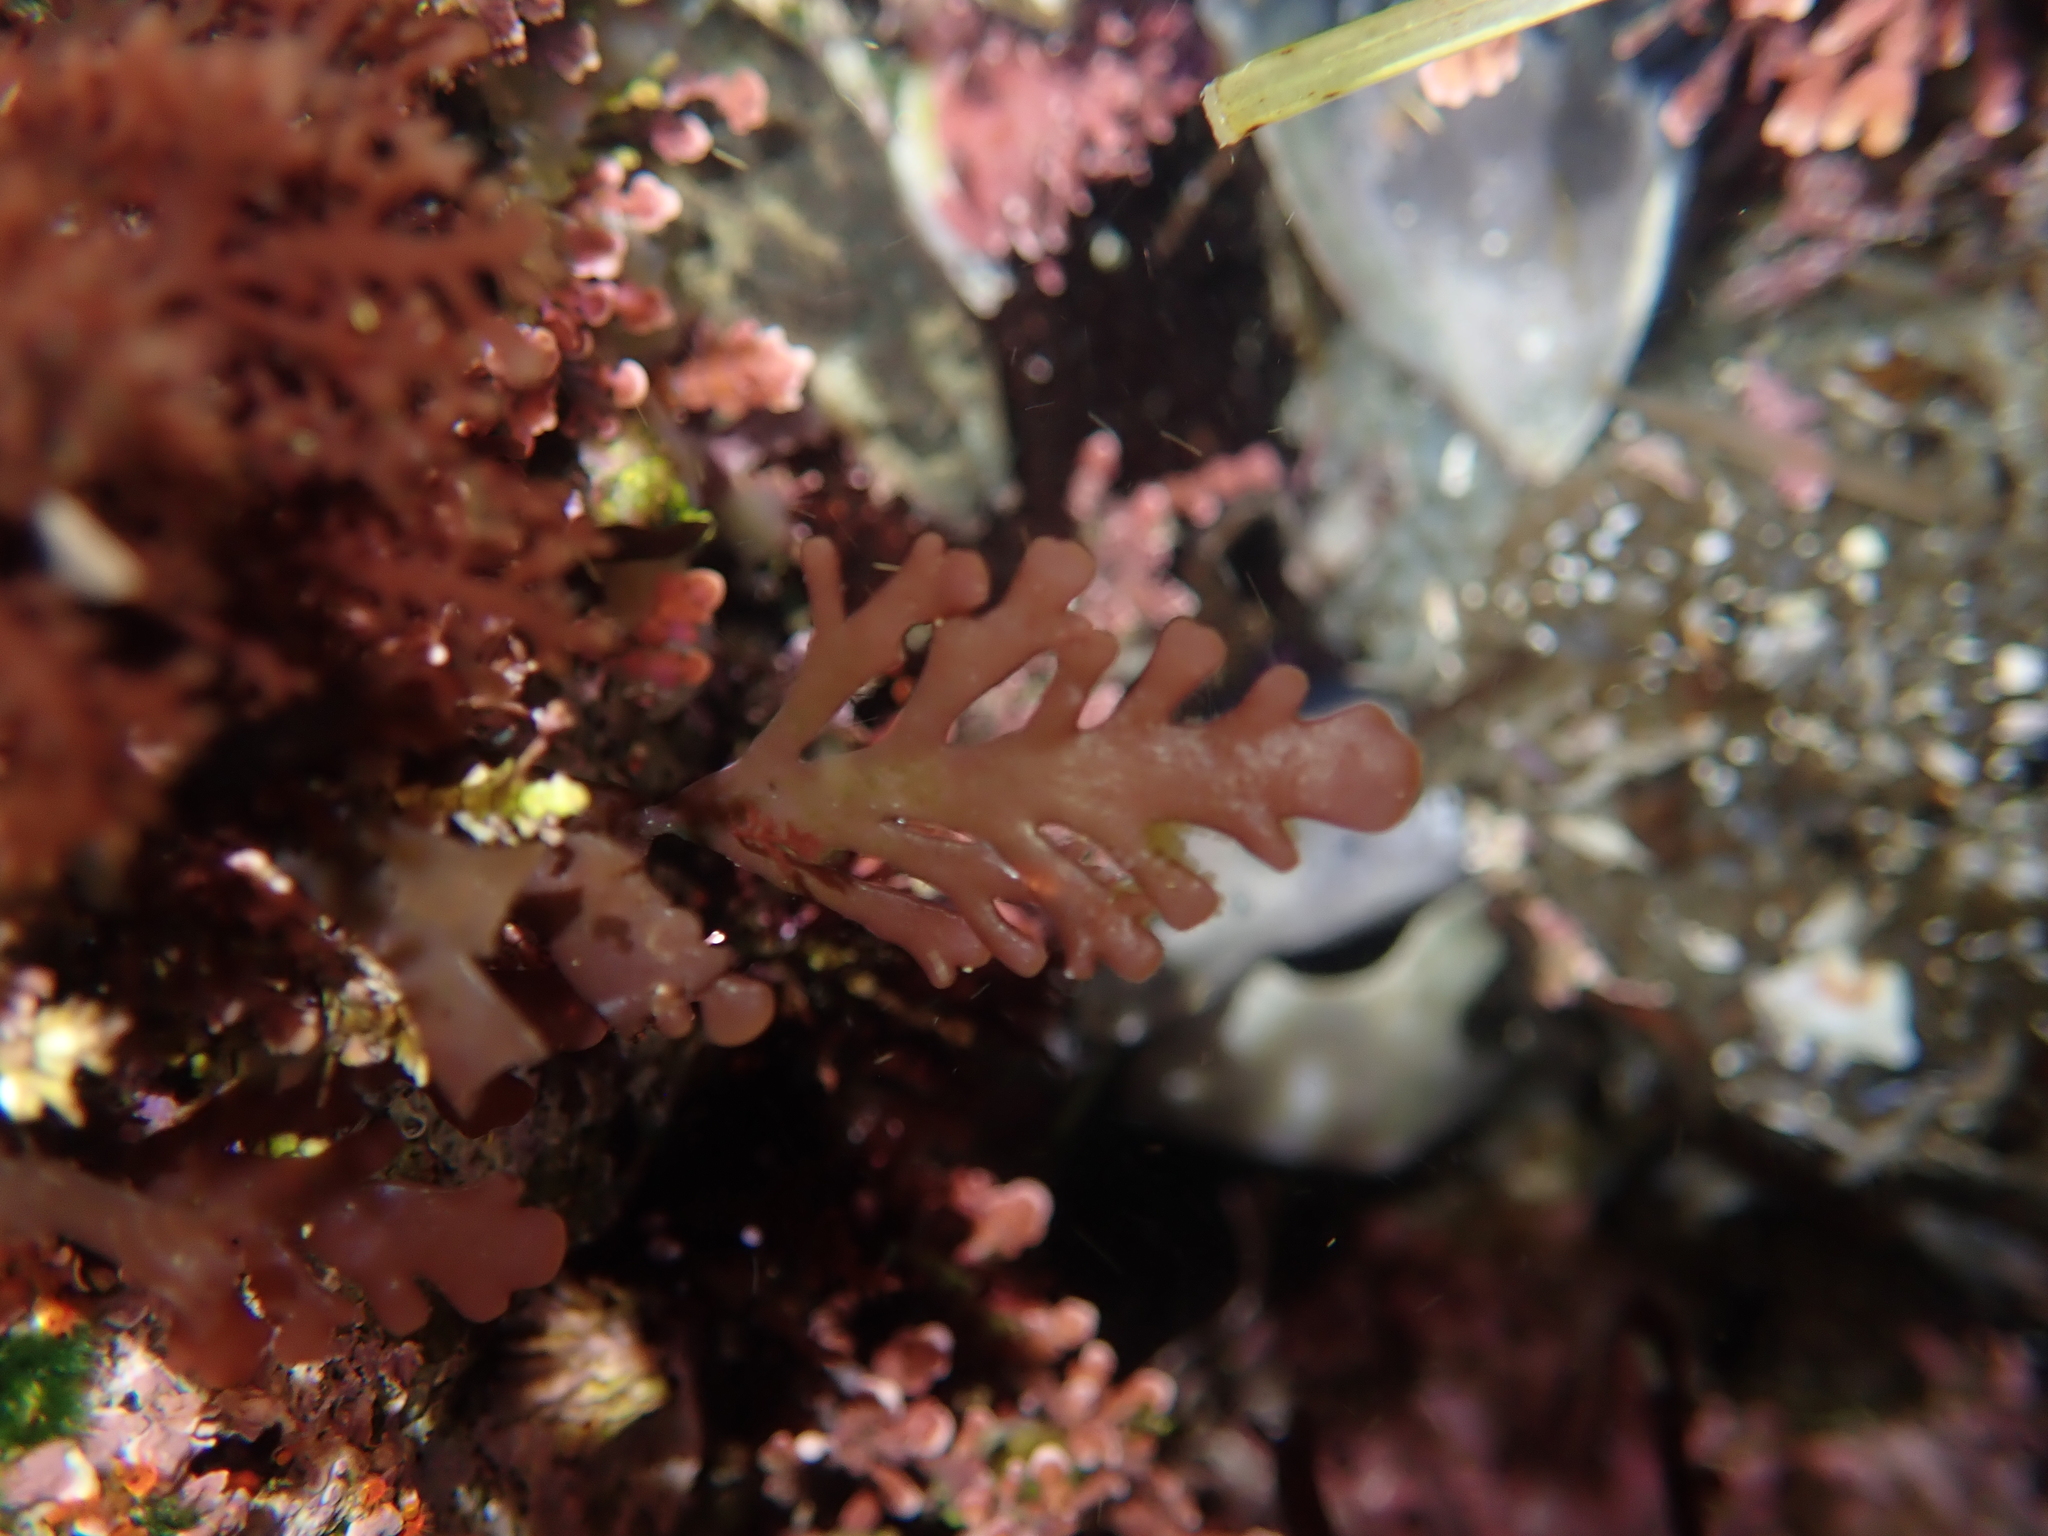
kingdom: Plantae
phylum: Rhodophyta
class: Florideophyceae
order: Ceramiales
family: Rhodomelaceae
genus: Osmundea
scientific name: Osmundea spectabilis
